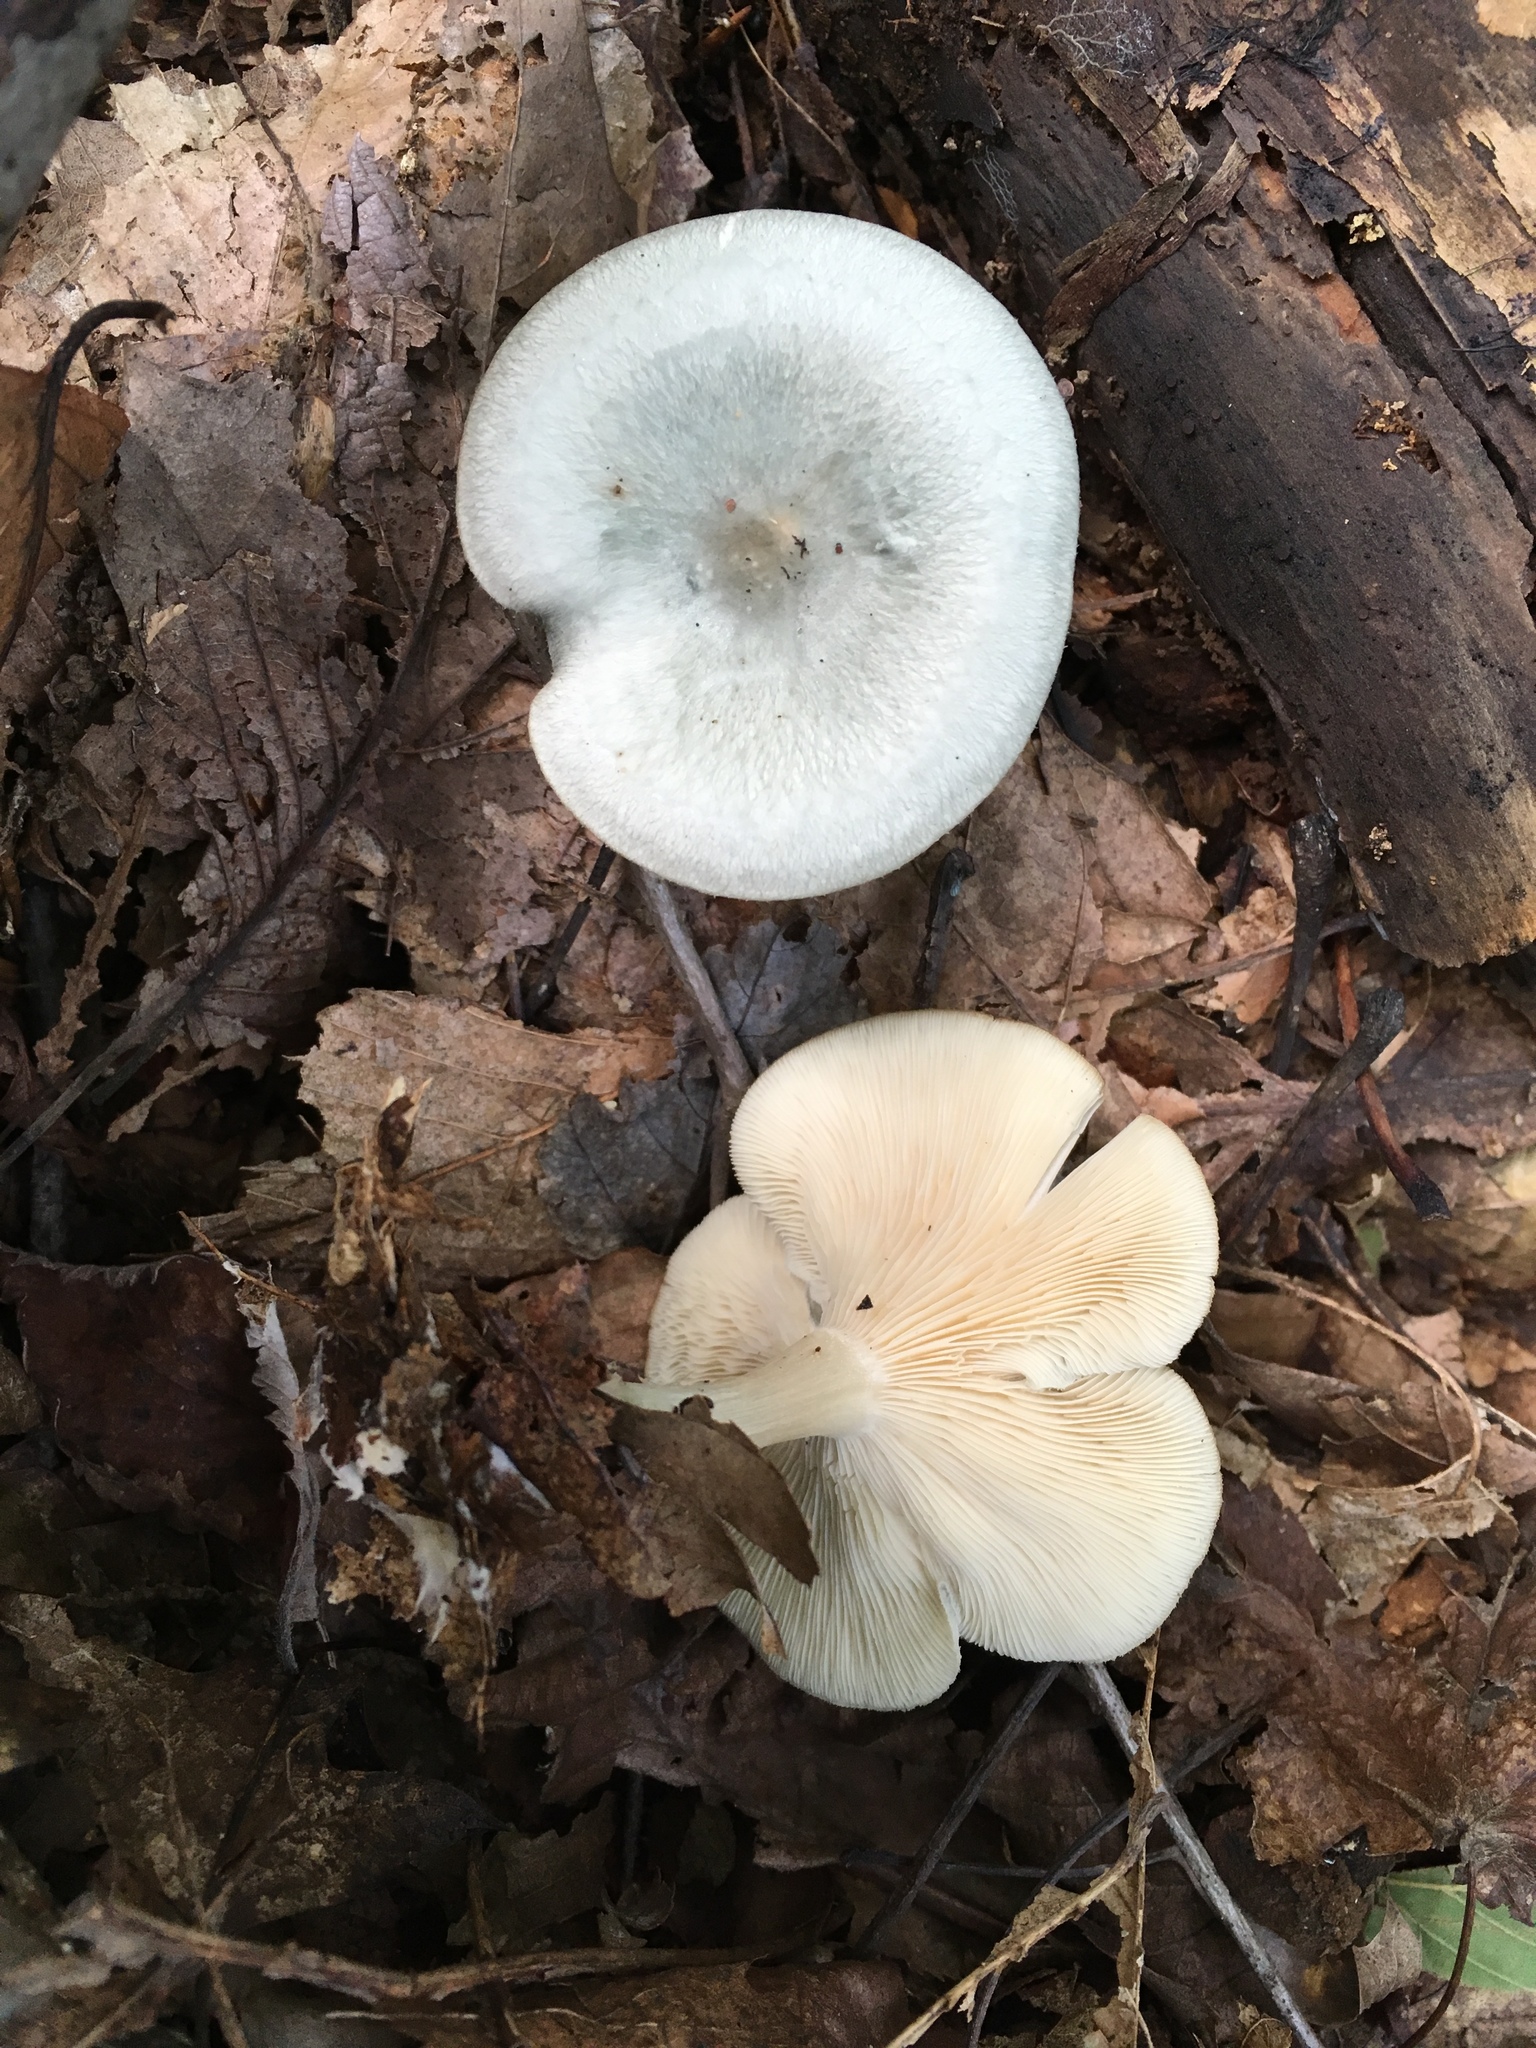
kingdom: Fungi
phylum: Basidiomycota
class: Agaricomycetes
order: Agaricales
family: Tricholomataceae
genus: Collybia
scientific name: Collybia
